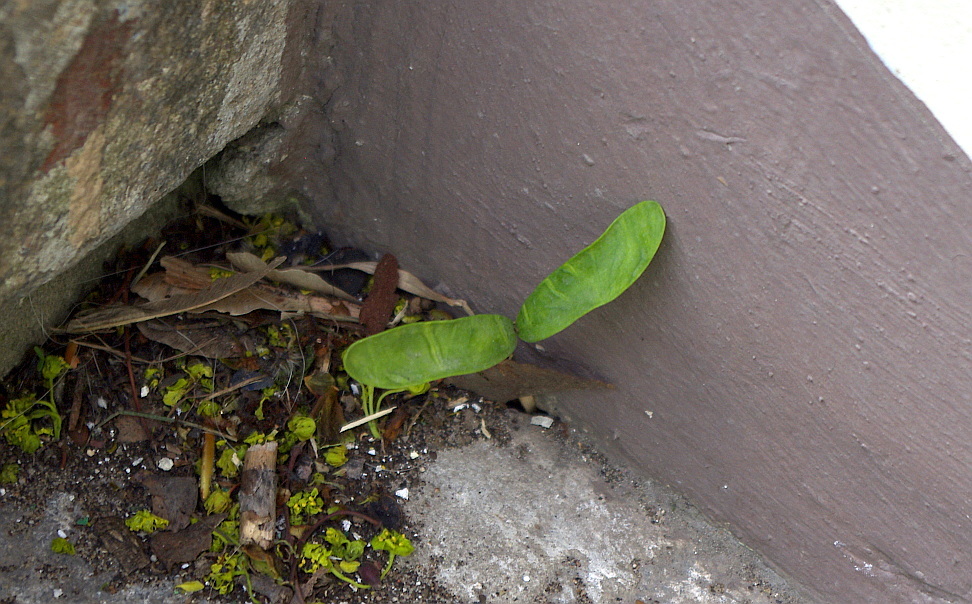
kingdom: Plantae
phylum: Tracheophyta
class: Magnoliopsida
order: Sapindales
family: Sapindaceae
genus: Acer
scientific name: Acer platanoides
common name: Norway maple
